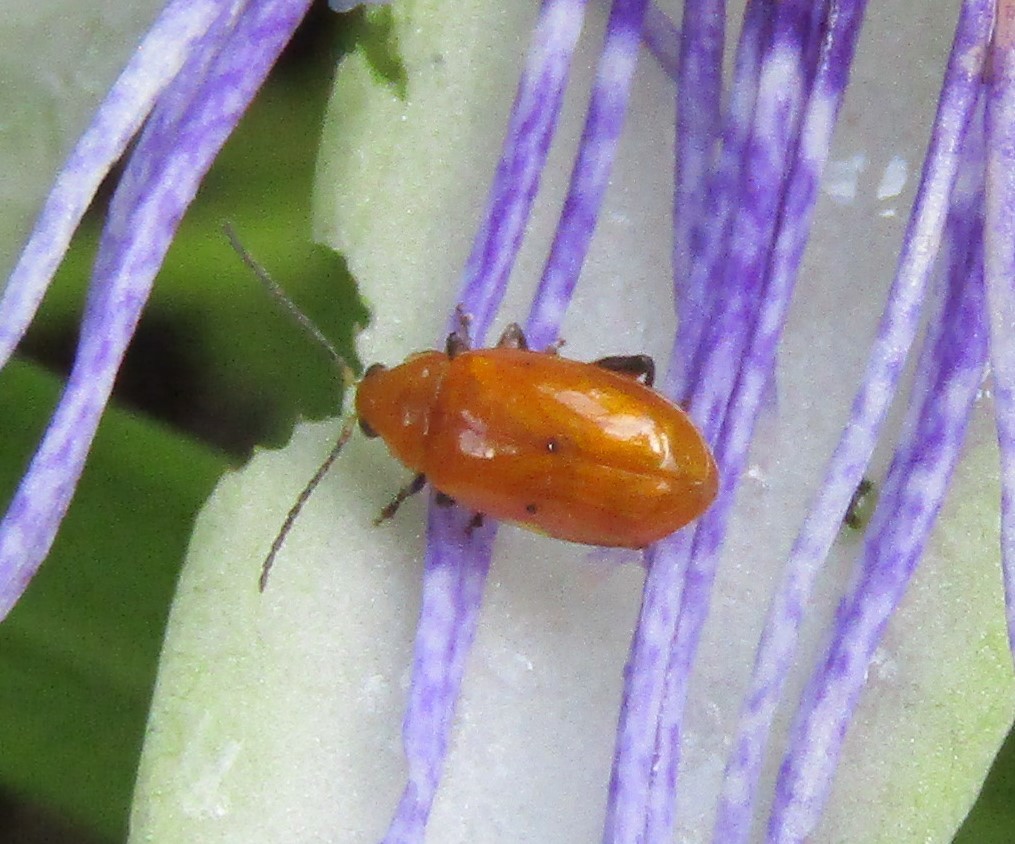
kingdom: Animalia
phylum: Arthropoda
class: Insecta
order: Coleoptera
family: Chrysomelidae
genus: Parchicola
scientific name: Parchicola tibialis
